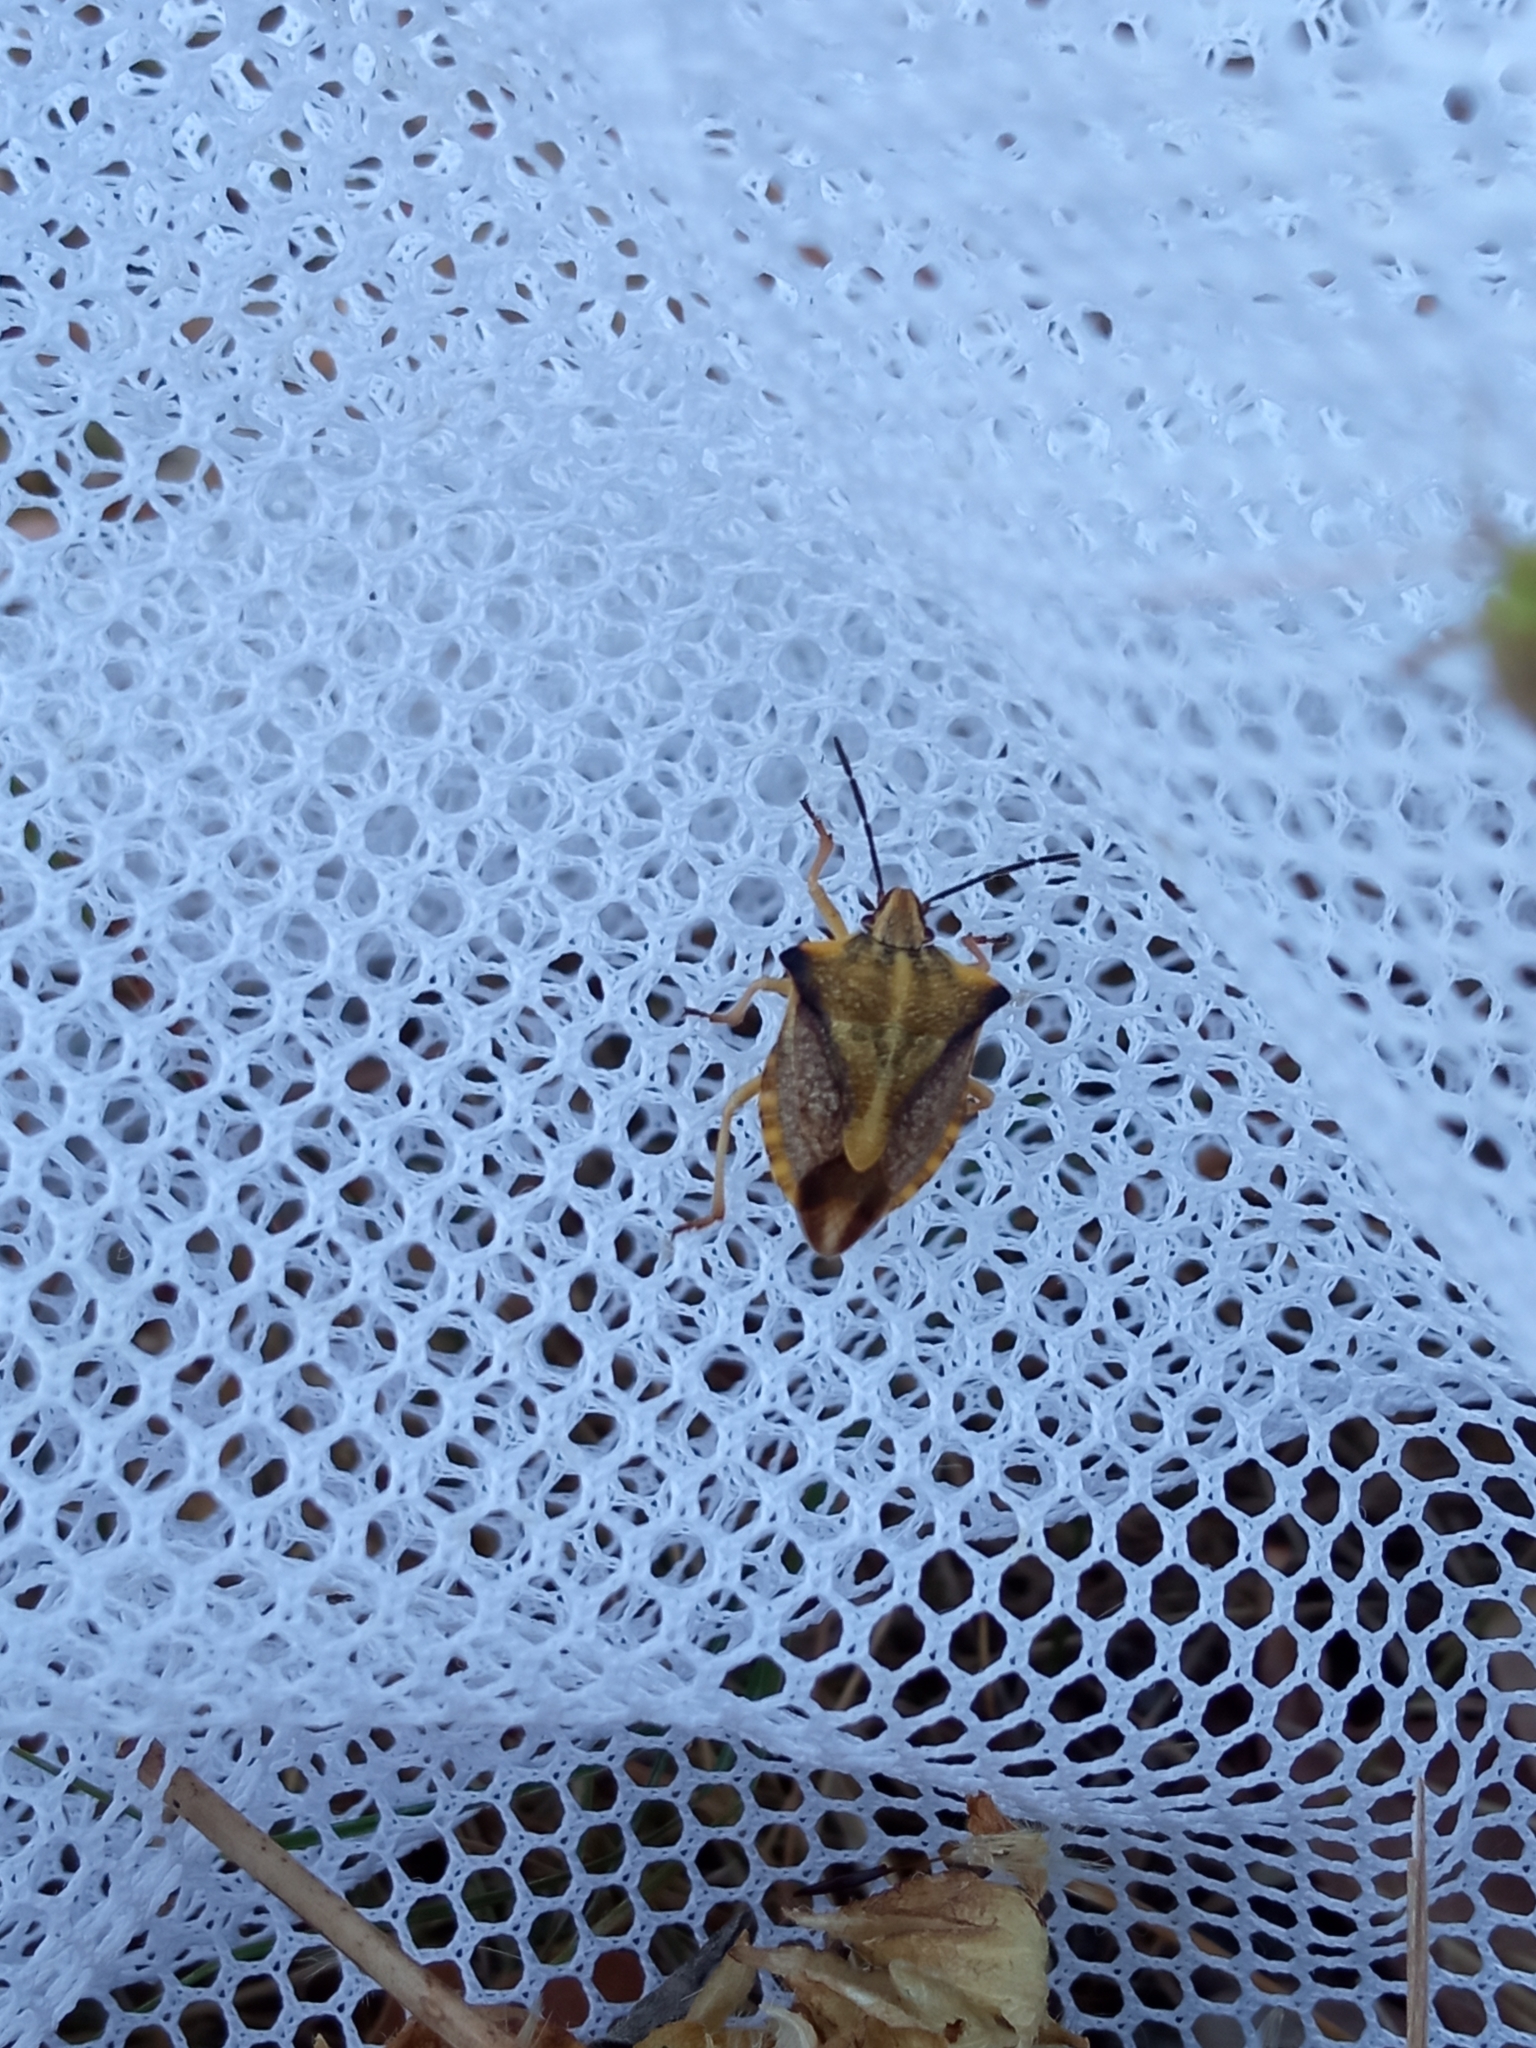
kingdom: Animalia
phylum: Arthropoda
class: Insecta
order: Hemiptera
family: Pentatomidae
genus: Carpocoris
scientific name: Carpocoris fuscispinus
